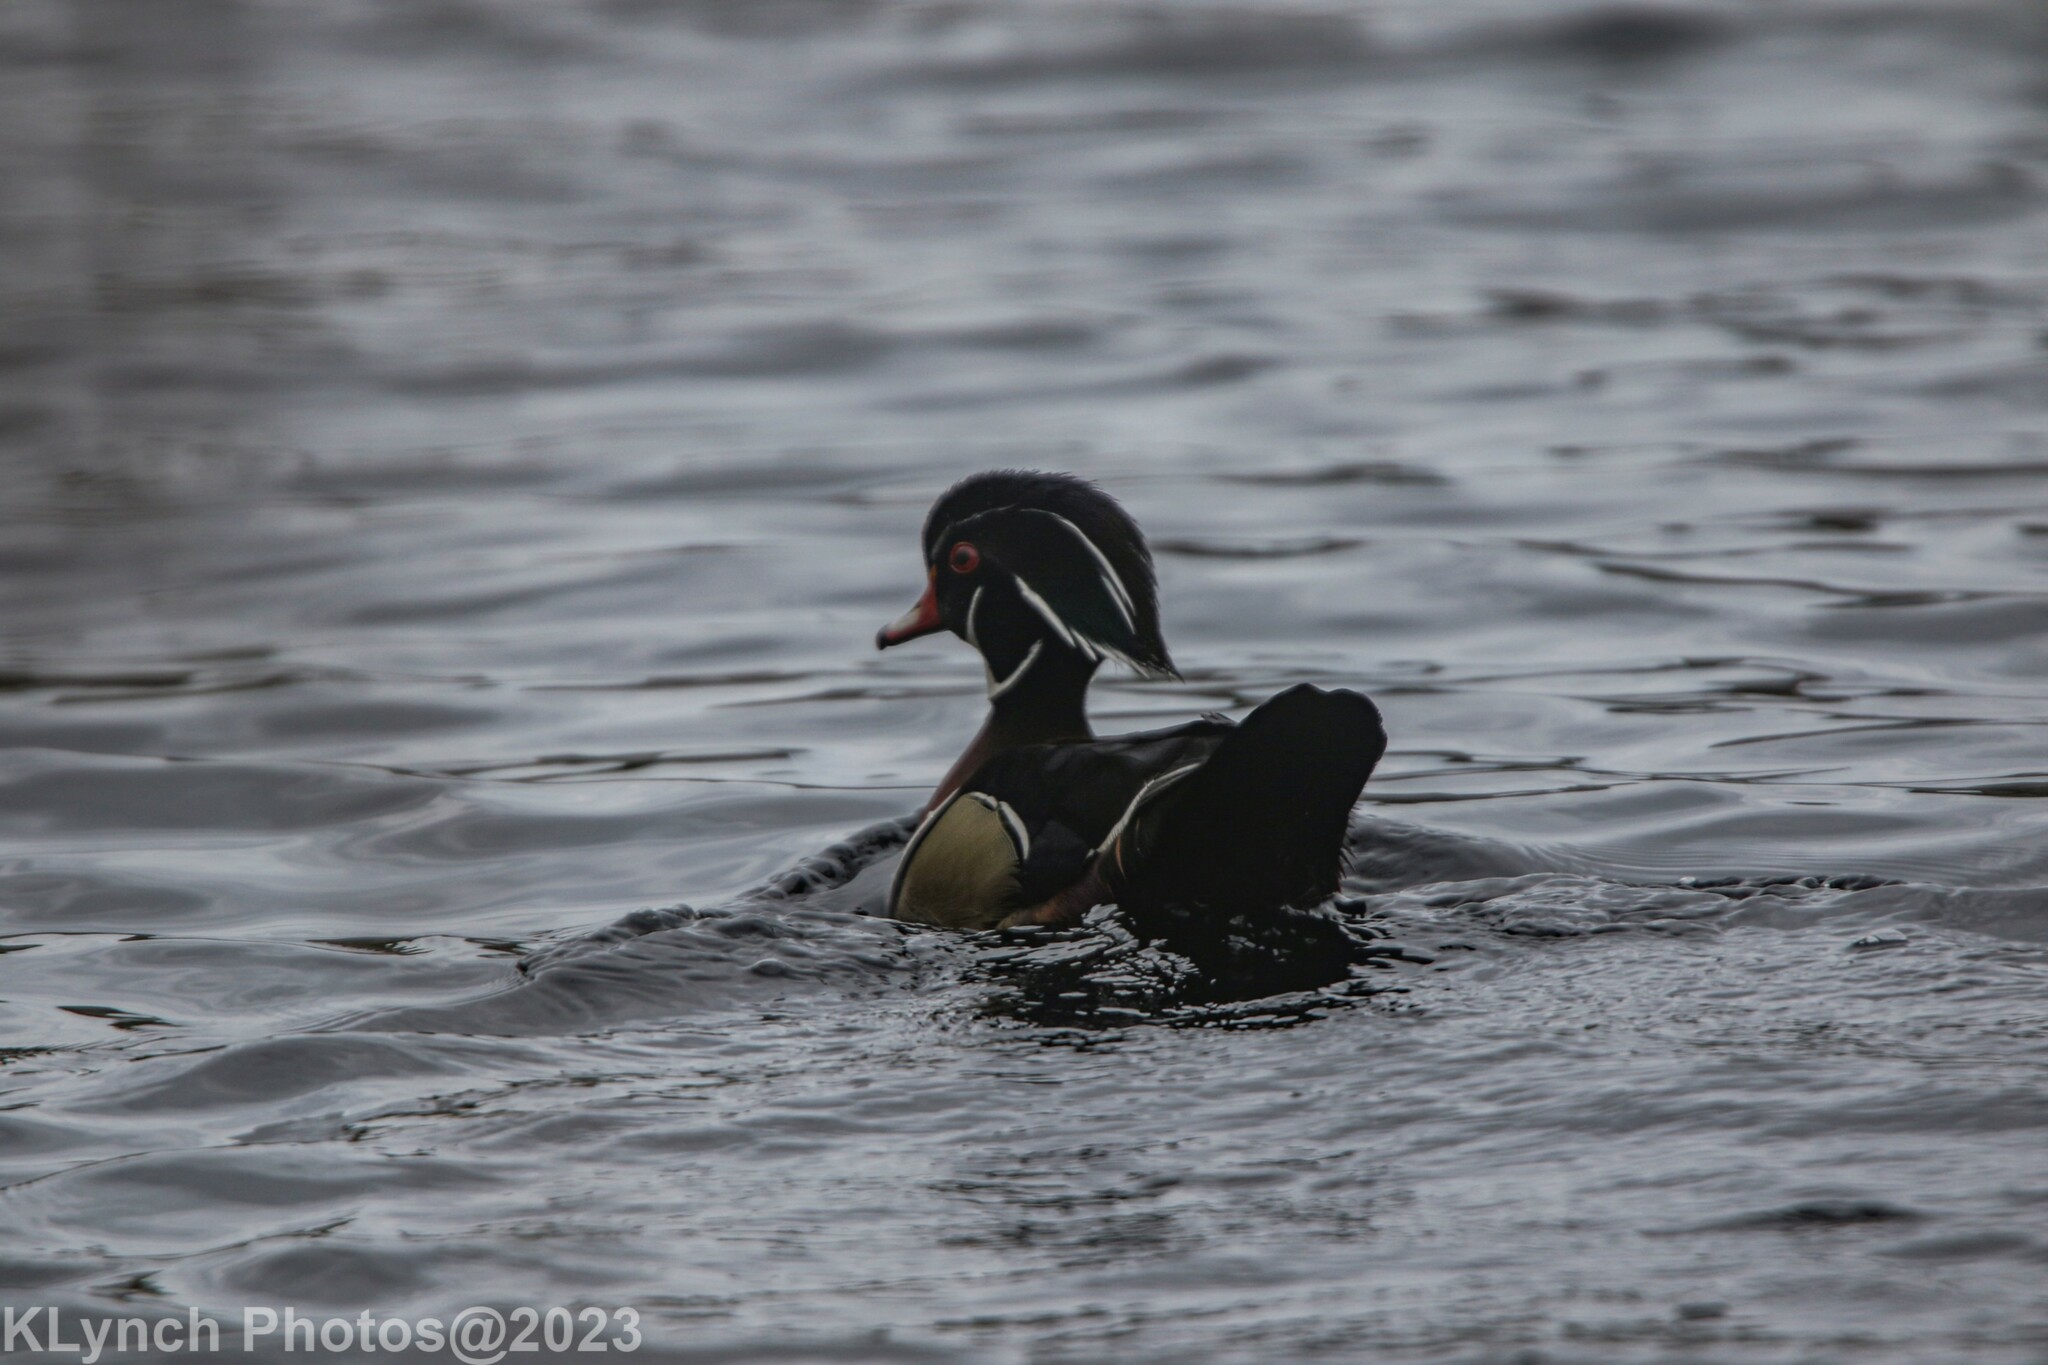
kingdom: Animalia
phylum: Chordata
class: Aves
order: Anseriformes
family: Anatidae
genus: Aix
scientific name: Aix sponsa
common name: Wood duck
